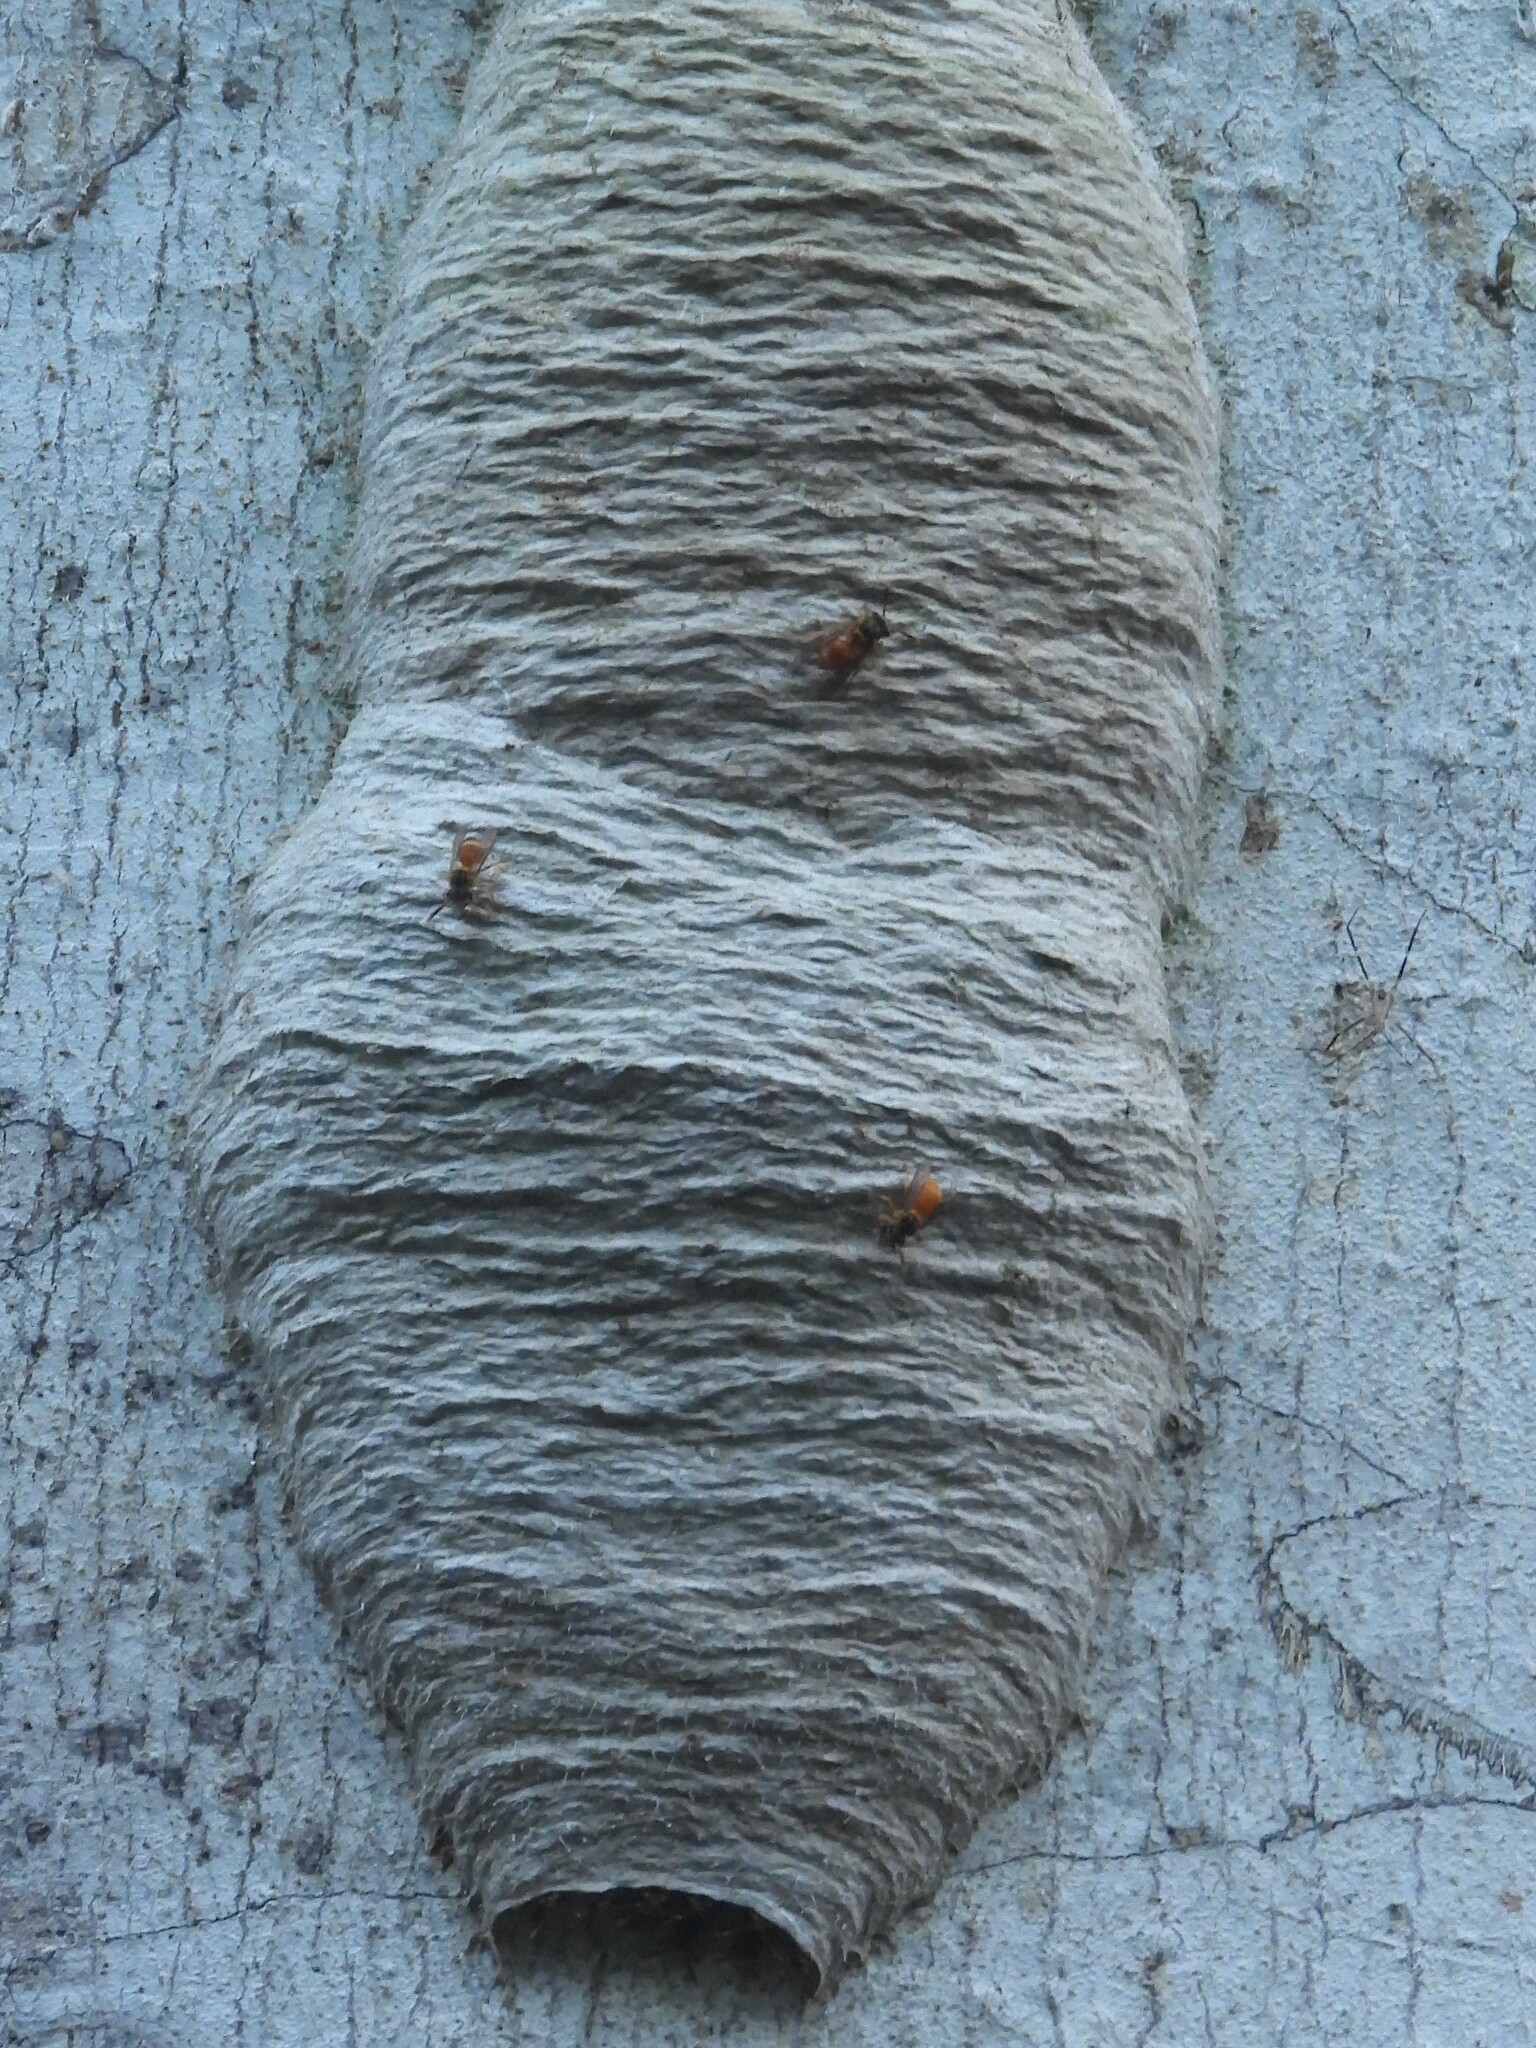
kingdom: Animalia
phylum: Arthropoda
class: Insecta
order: Hymenoptera
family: Vespidae
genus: Nectarinella
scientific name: Nectarinella championi
